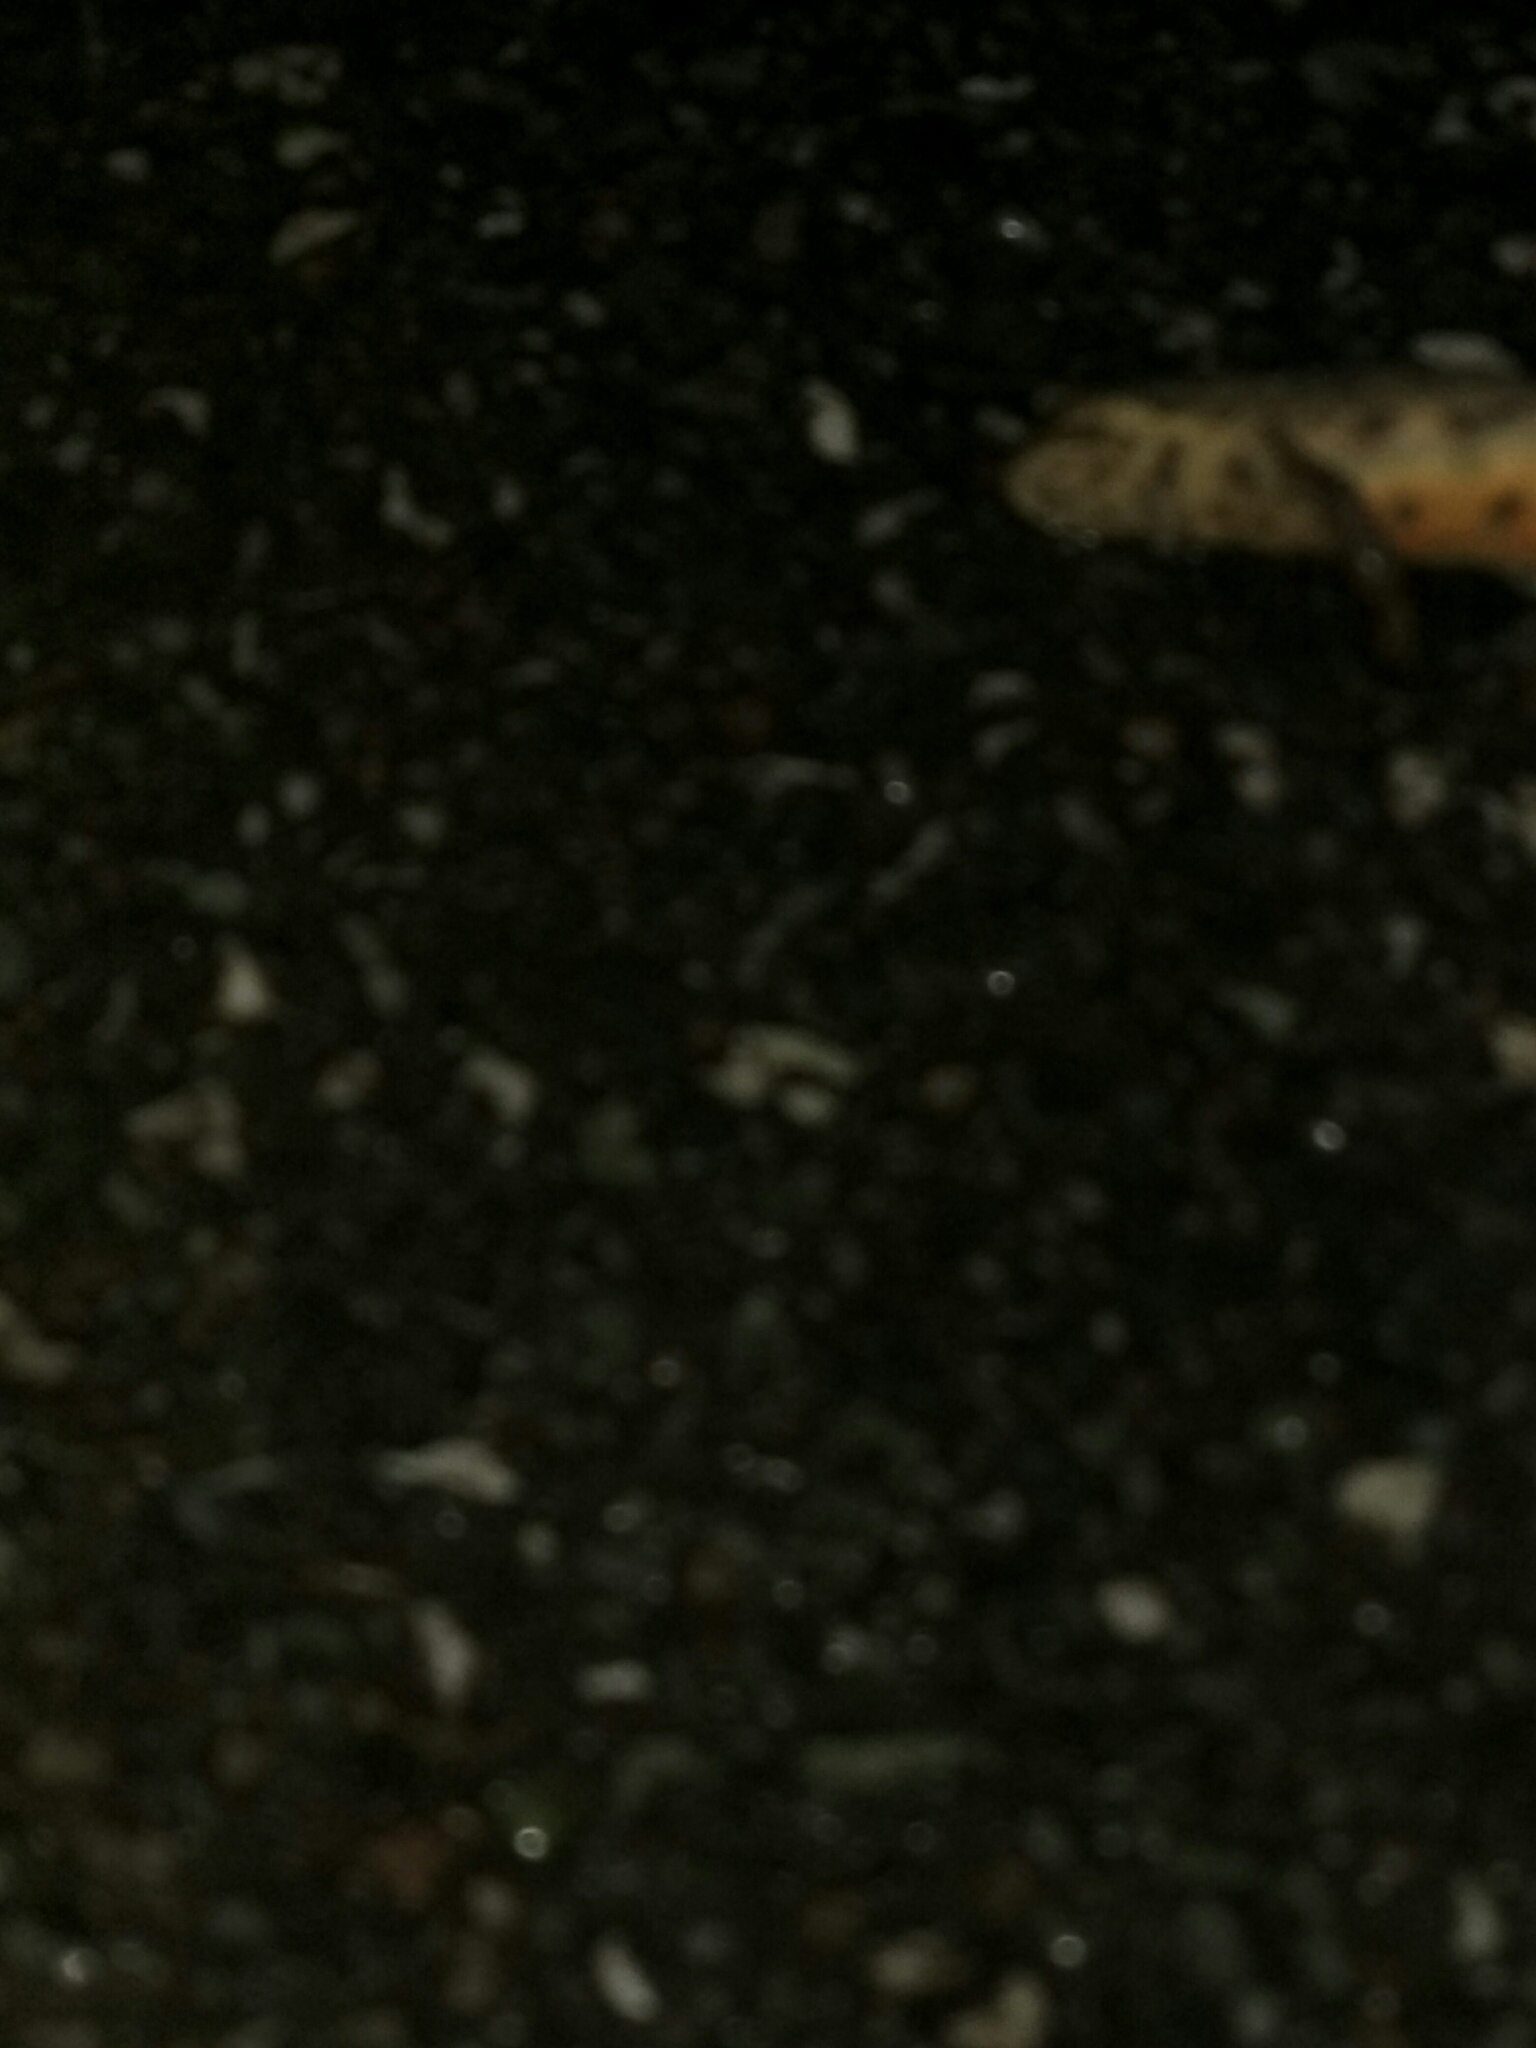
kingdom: Animalia
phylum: Chordata
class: Amphibia
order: Caudata
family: Salamandridae
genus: Lissotriton
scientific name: Lissotriton vulgaris
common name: Smooth newt
